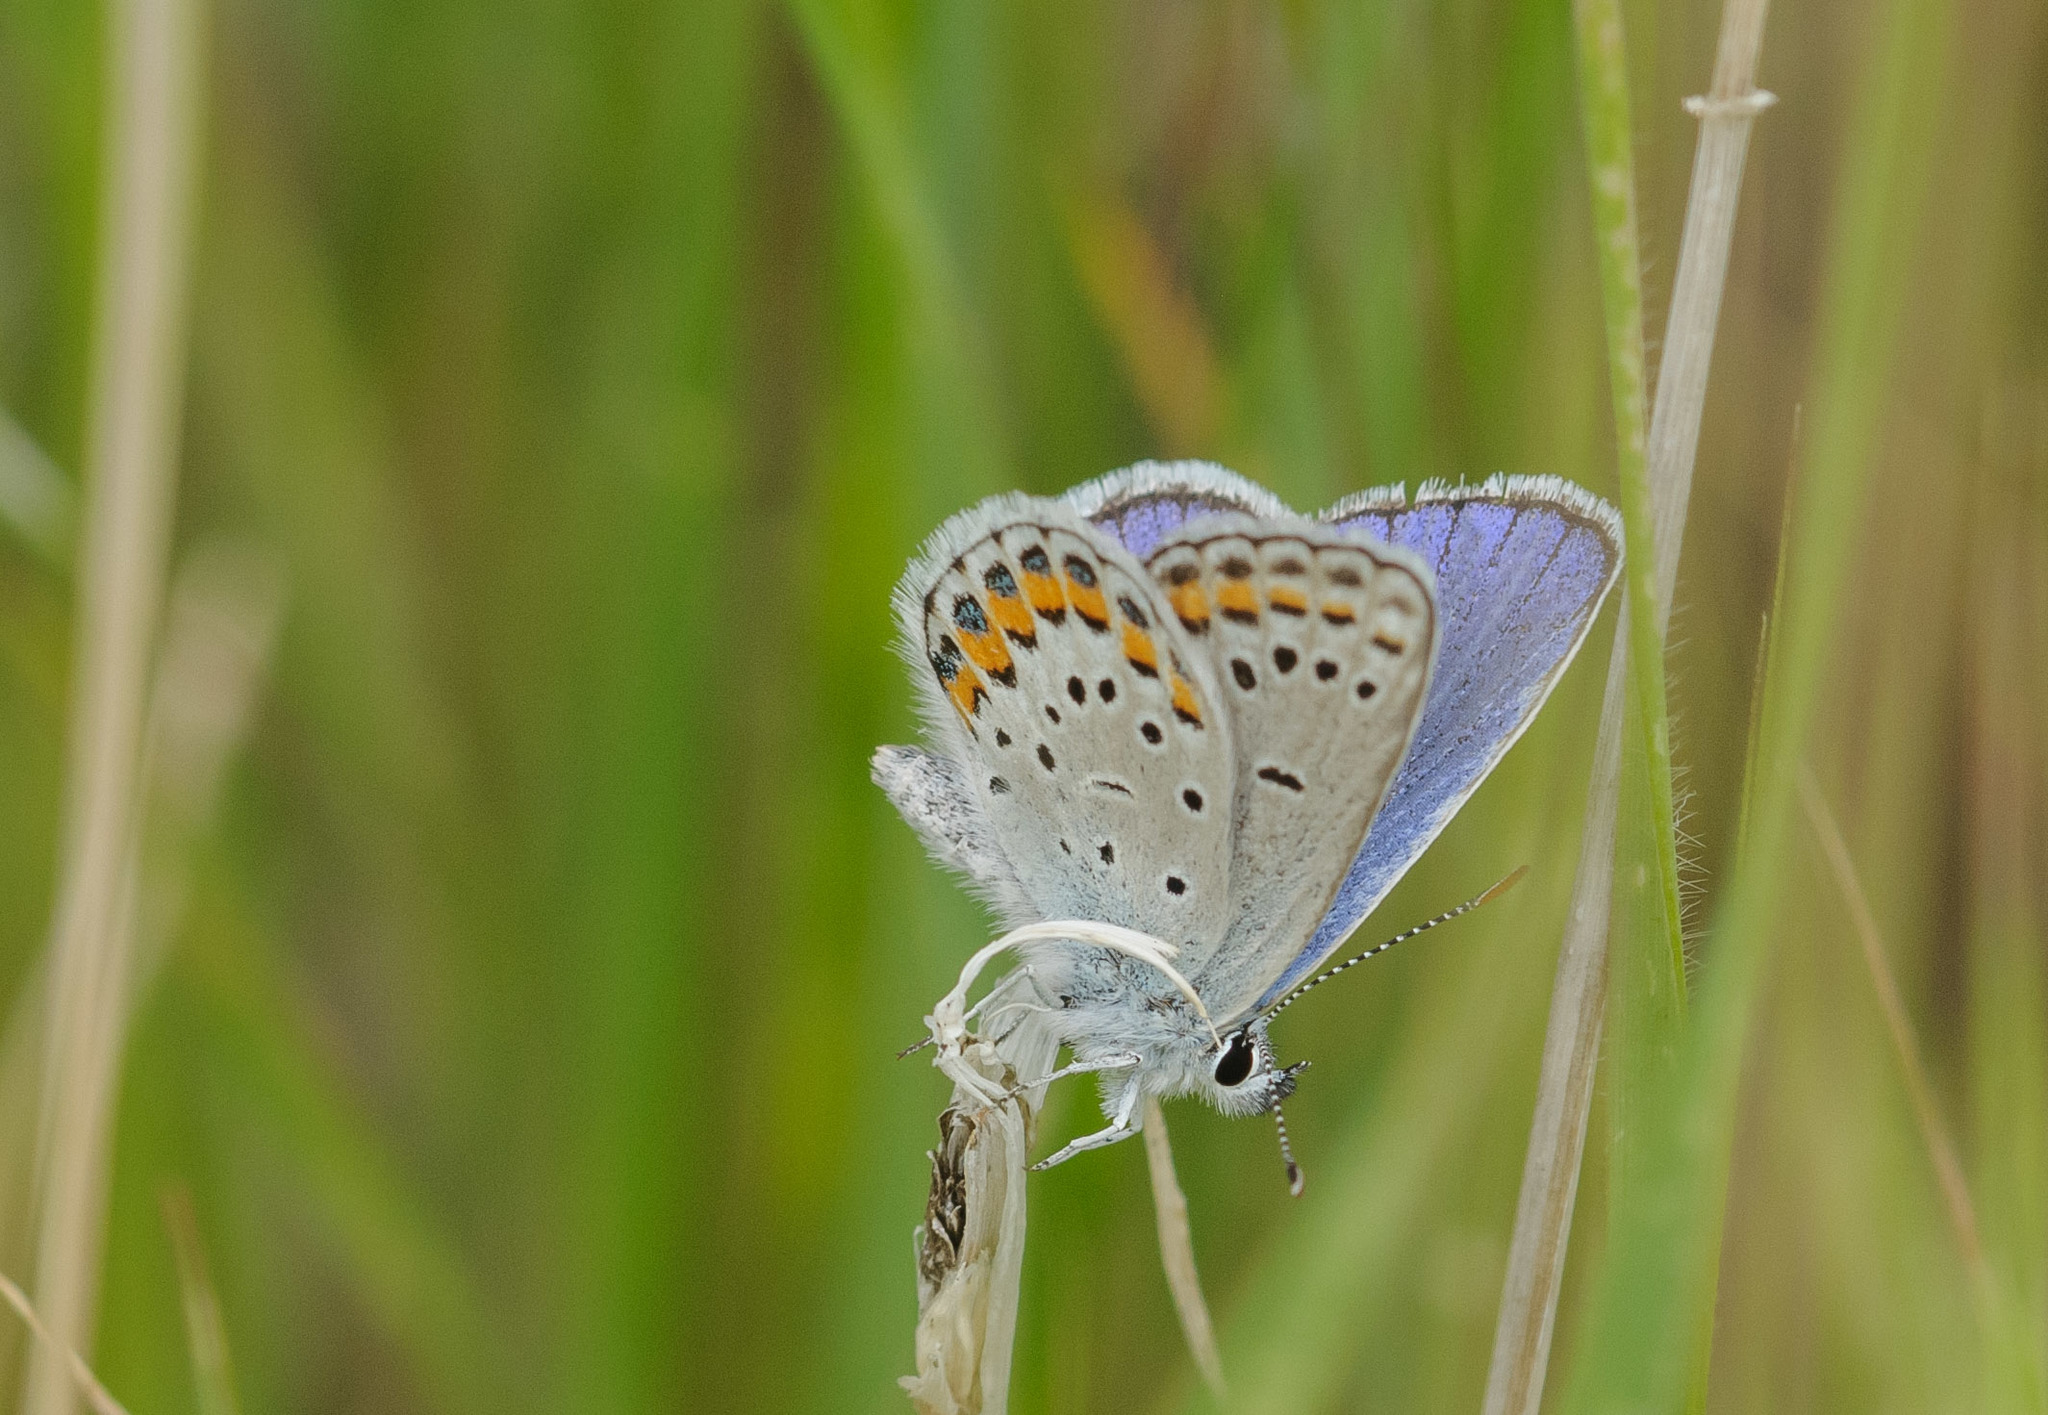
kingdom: Animalia
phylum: Arthropoda
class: Insecta
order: Lepidoptera
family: Lycaenidae
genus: Lycaeides
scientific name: Lycaeides melissa
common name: Melissa blue
